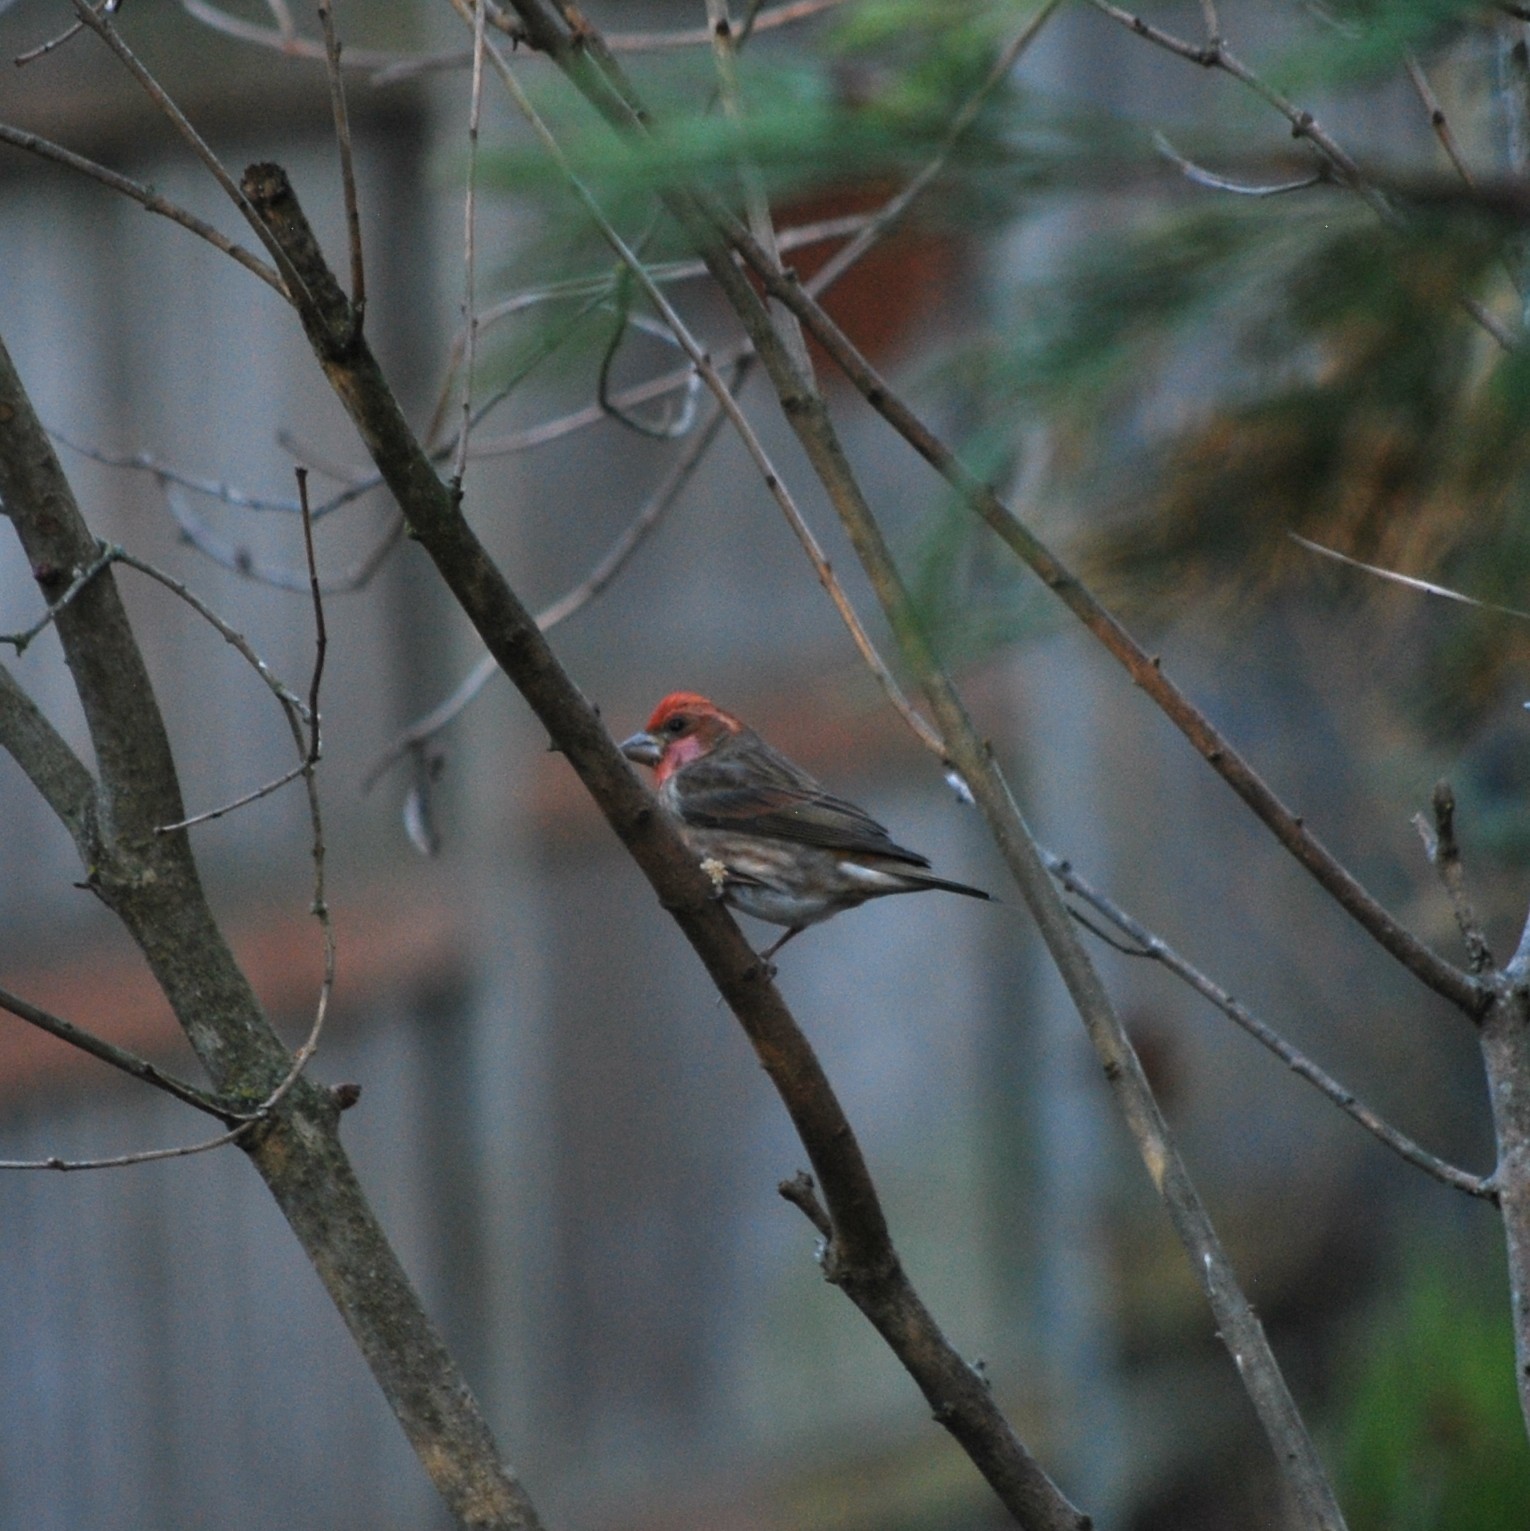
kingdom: Animalia
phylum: Chordata
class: Aves
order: Passeriformes
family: Fringillidae
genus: Haemorhous
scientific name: Haemorhous purpureus
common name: Purple finch
